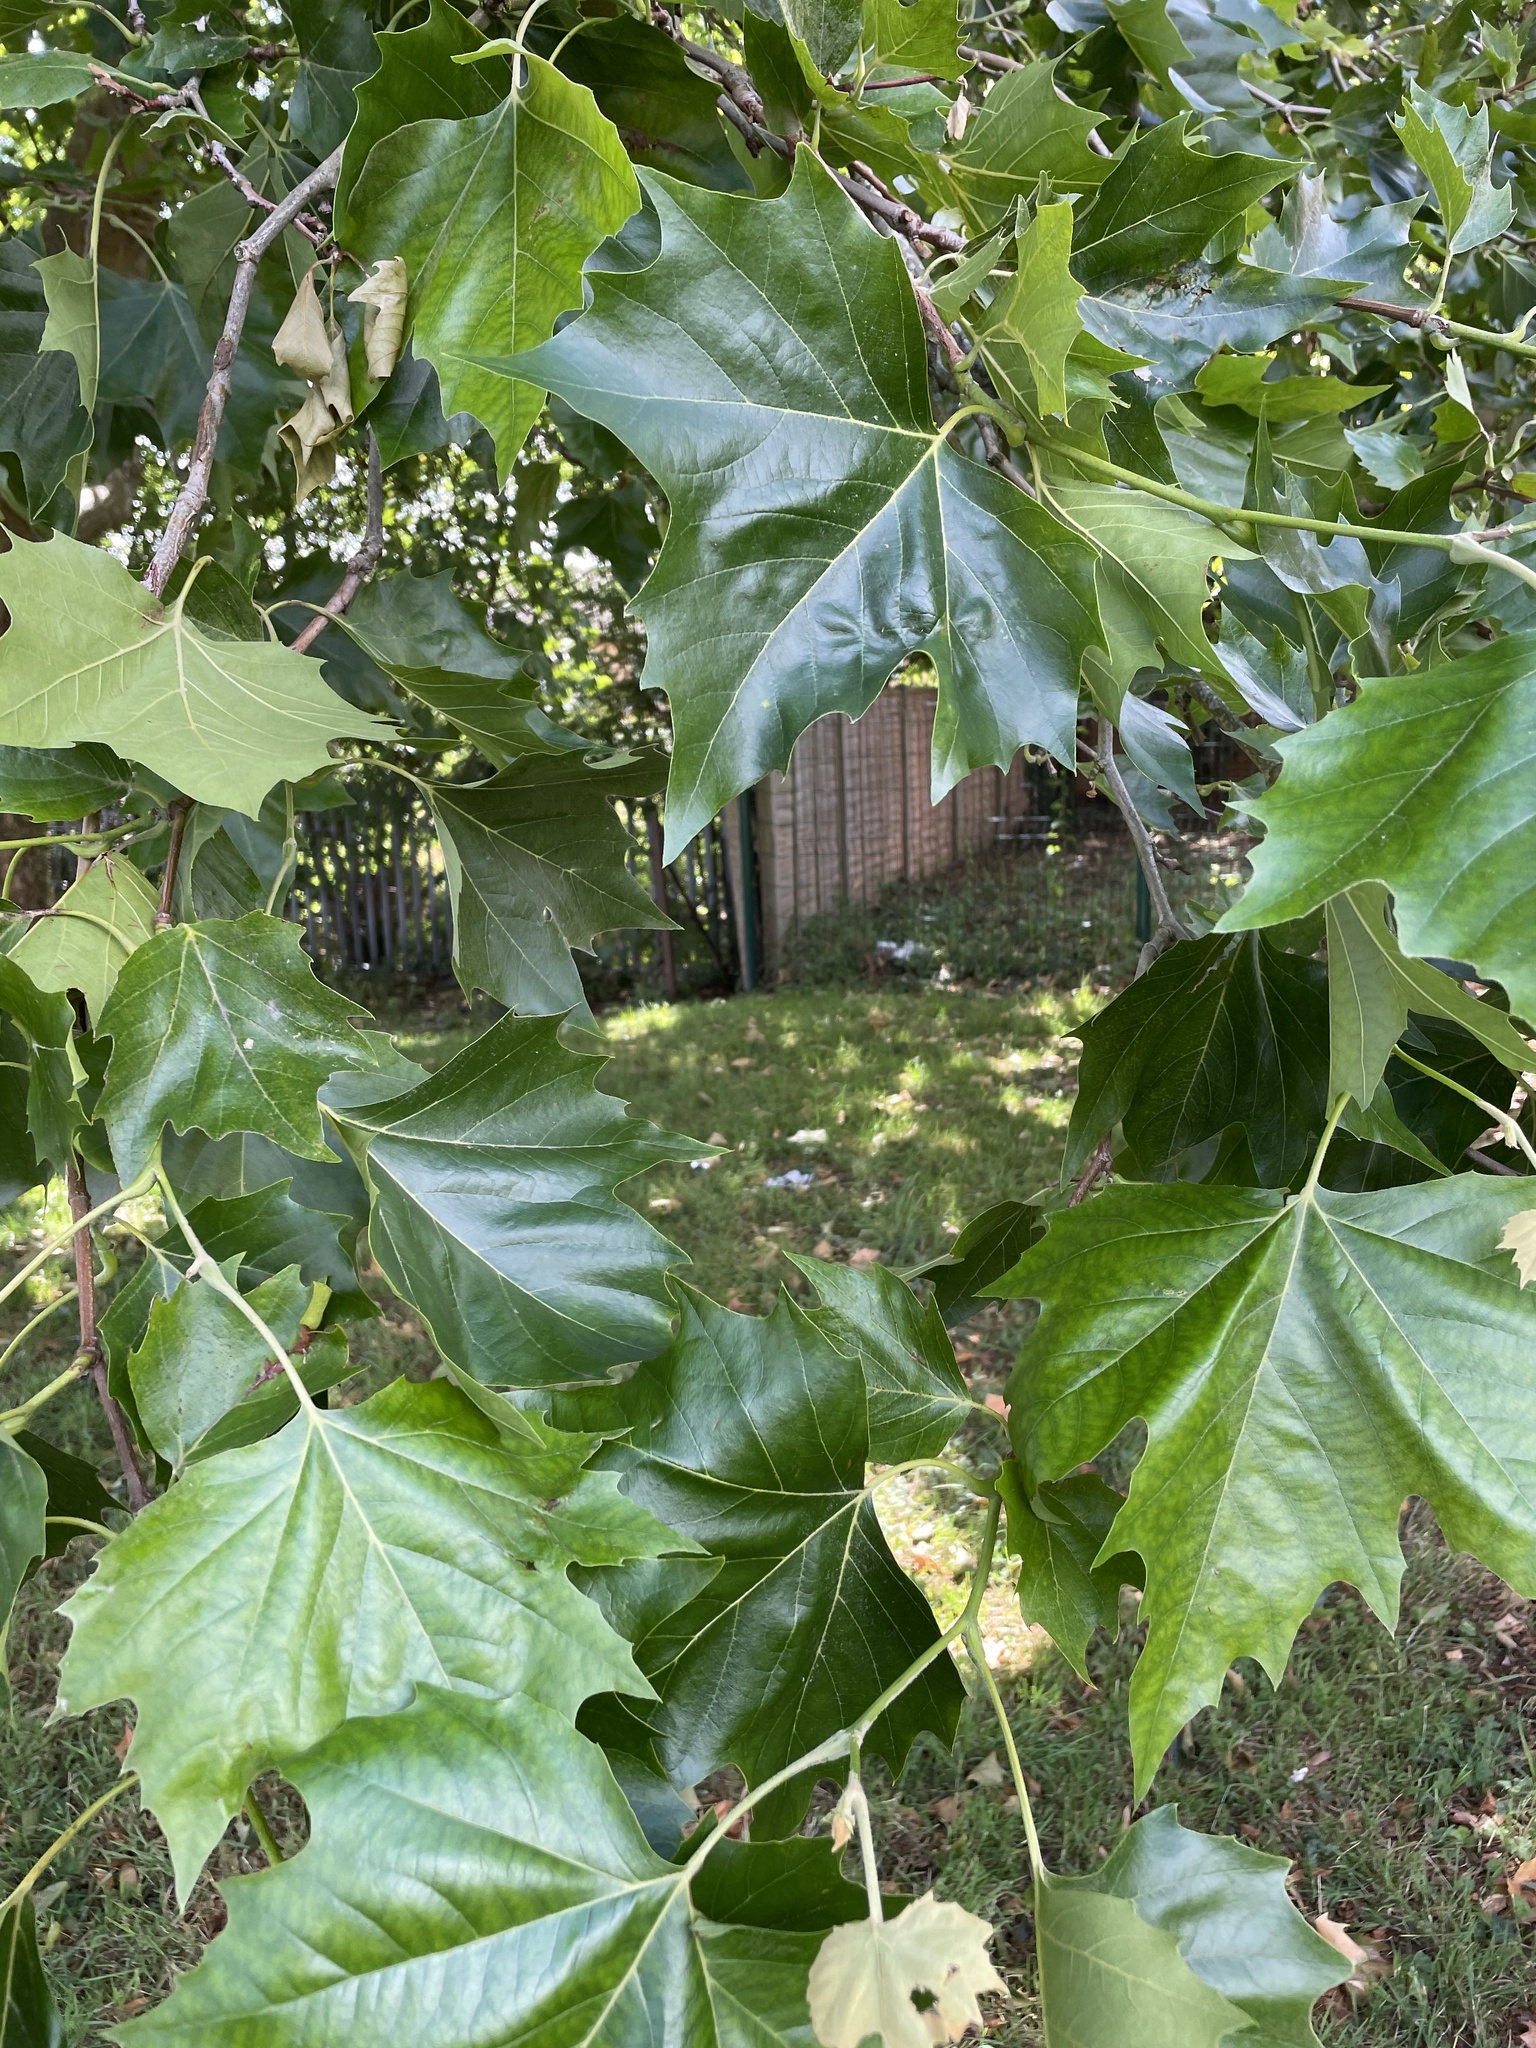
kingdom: Plantae
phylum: Tracheophyta
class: Magnoliopsida
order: Sapindales
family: Sapindaceae
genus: Acer
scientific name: Acer platanoides
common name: Norway maple
